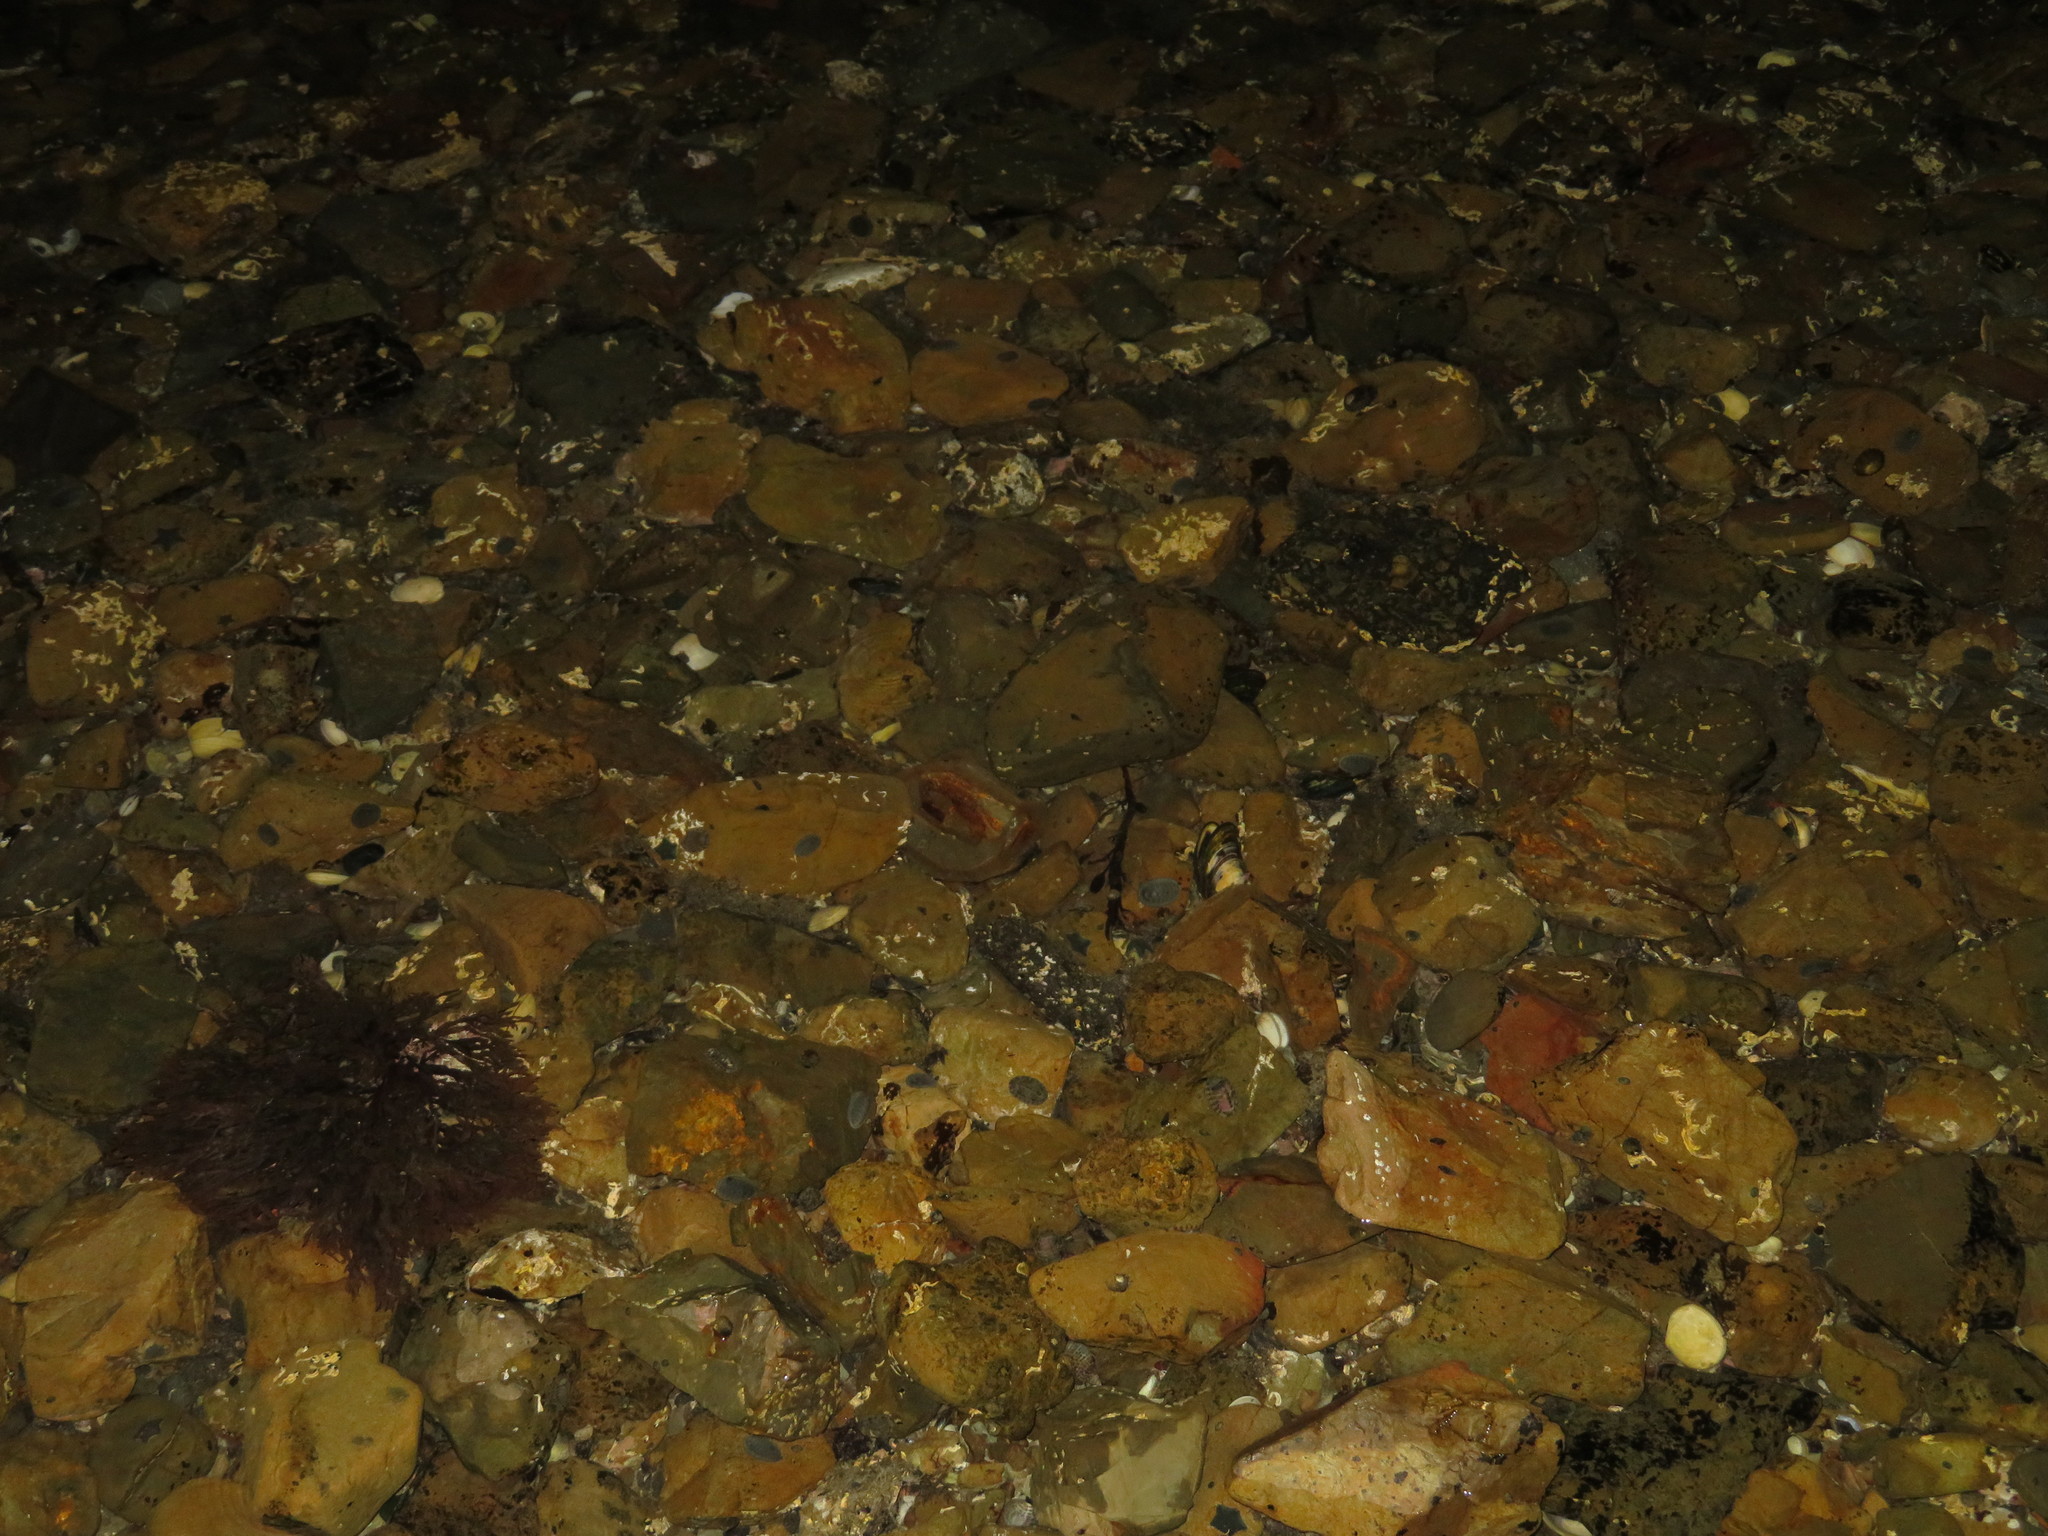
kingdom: Animalia
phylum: Mollusca
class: Polyplacophora
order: Chitonida
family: Chitonidae
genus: Chiton
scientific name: Chiton glaucus
